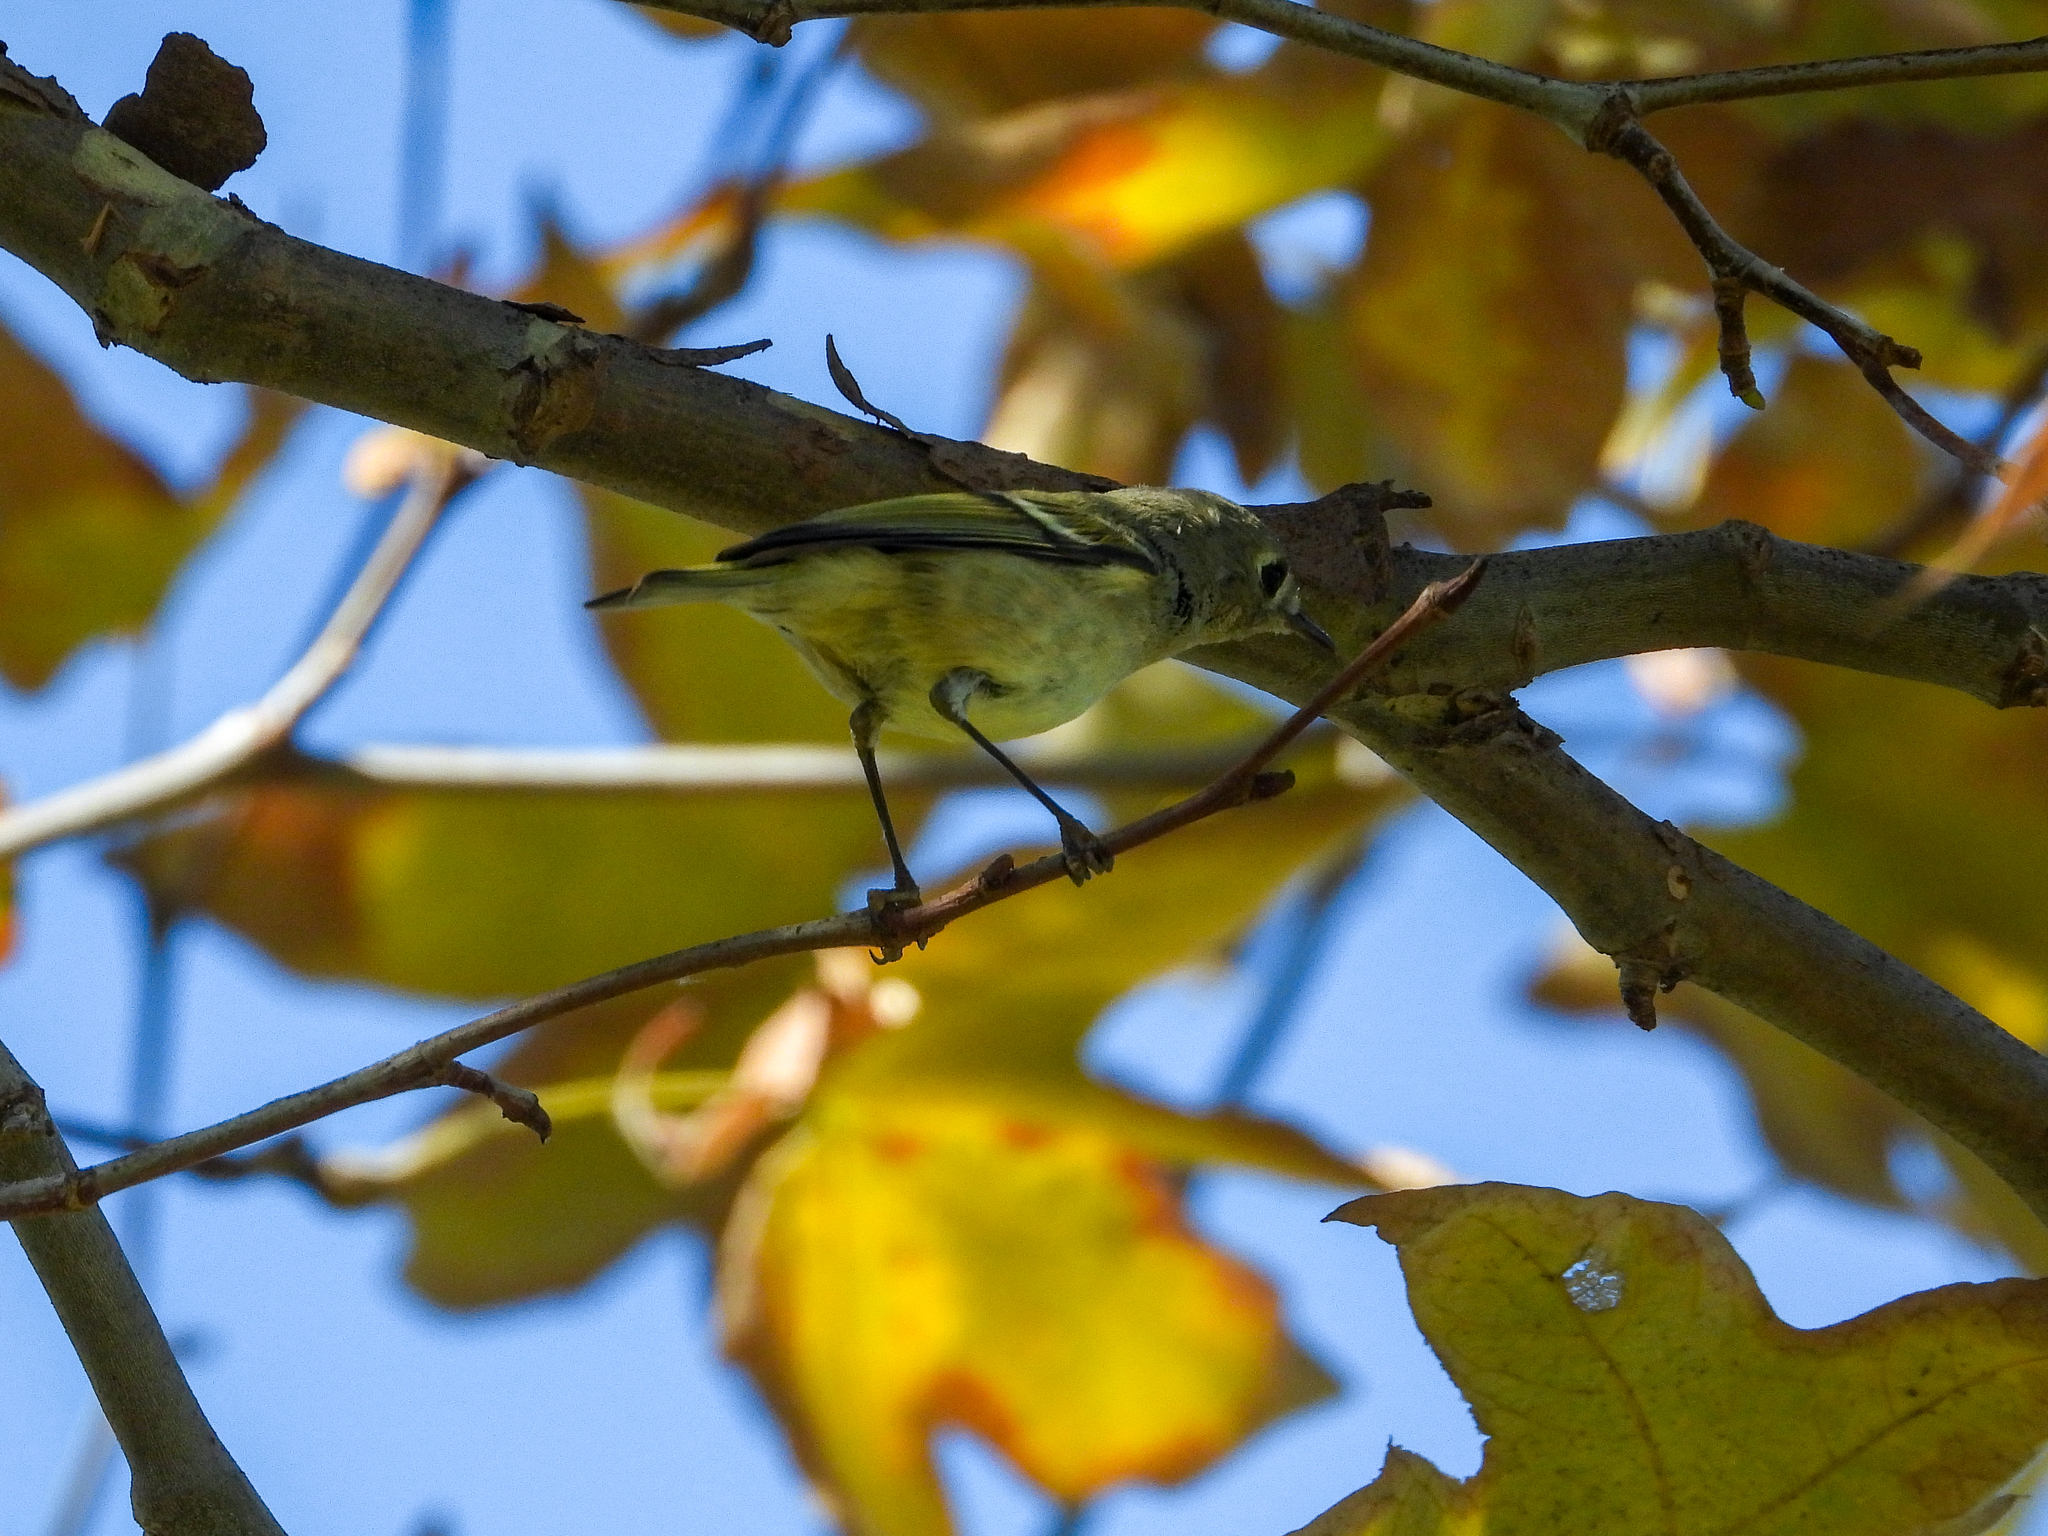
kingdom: Animalia
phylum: Chordata
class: Aves
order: Passeriformes
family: Regulidae
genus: Regulus
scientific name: Regulus calendula
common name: Ruby-crowned kinglet
